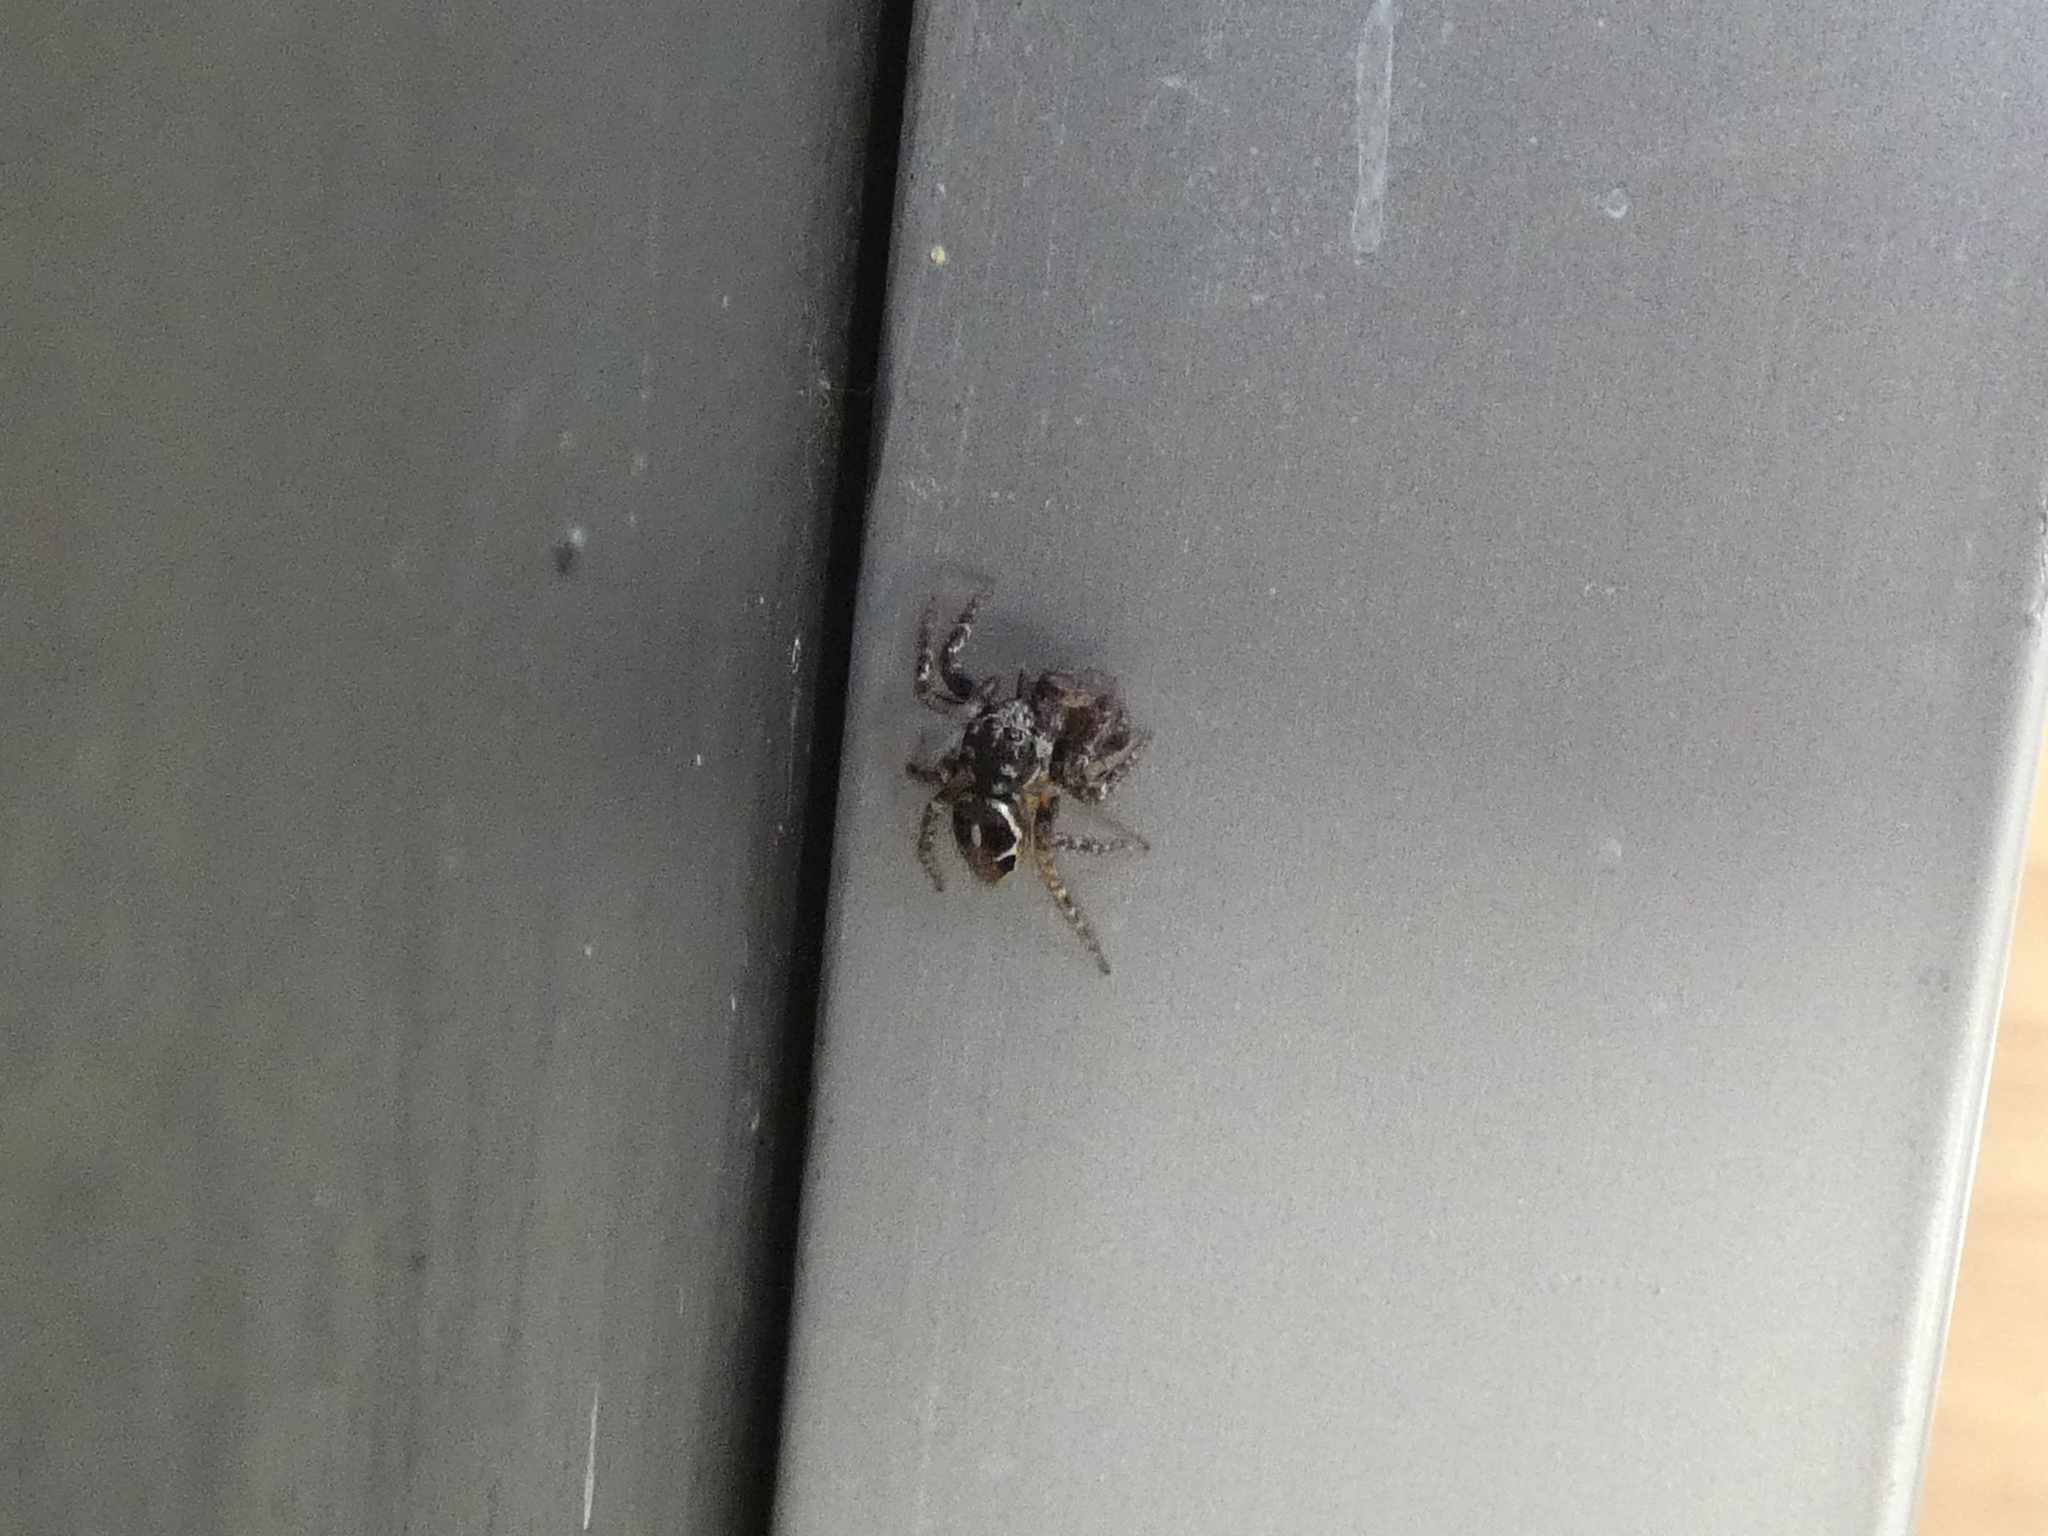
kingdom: Animalia
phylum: Arthropoda
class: Arachnida
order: Araneae
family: Salticidae
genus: Anasaitis
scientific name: Anasaitis canosa
